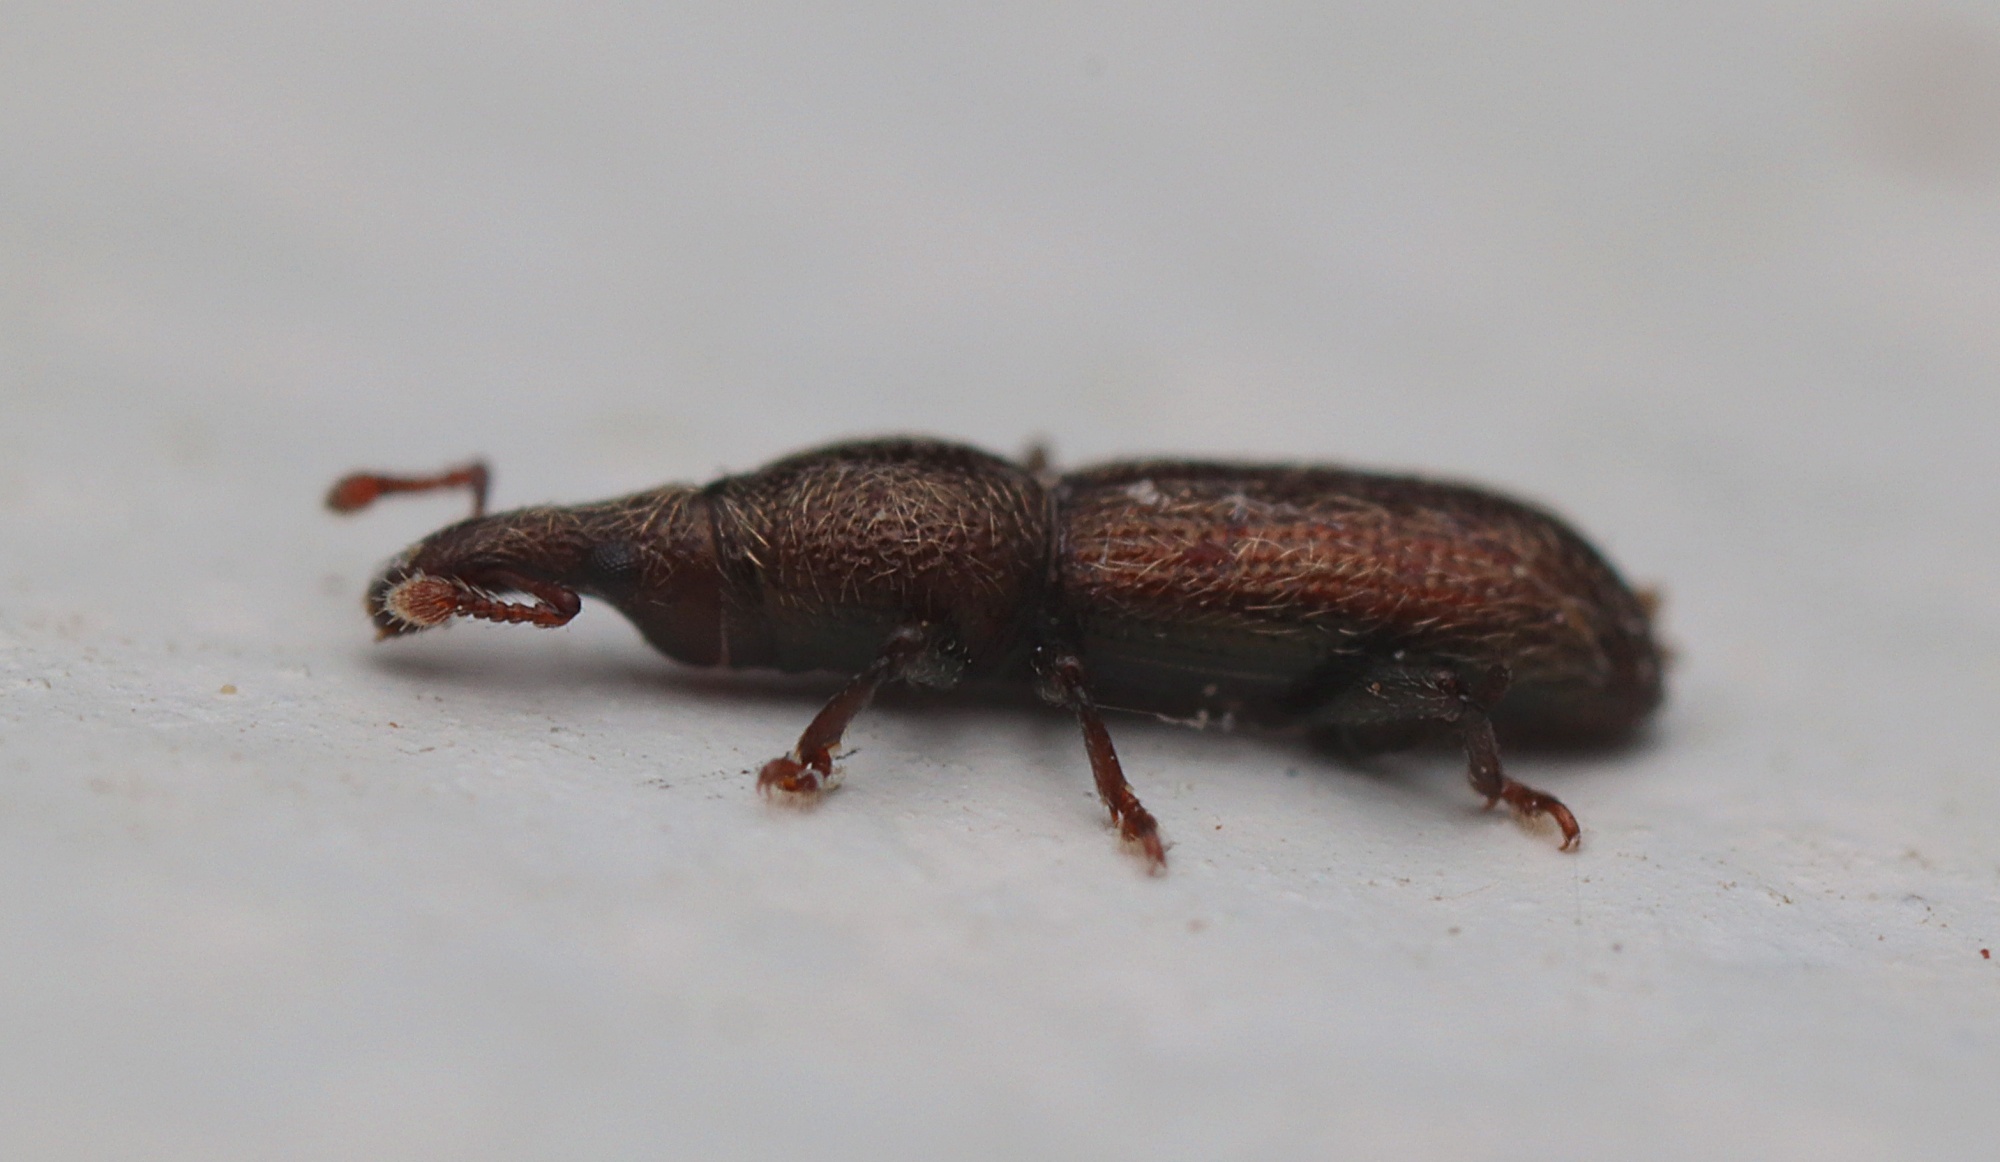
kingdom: Animalia
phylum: Arthropoda
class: Insecta
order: Coleoptera
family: Curculionidae
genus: Sericotrogus
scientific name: Sericotrogus subaenescens
